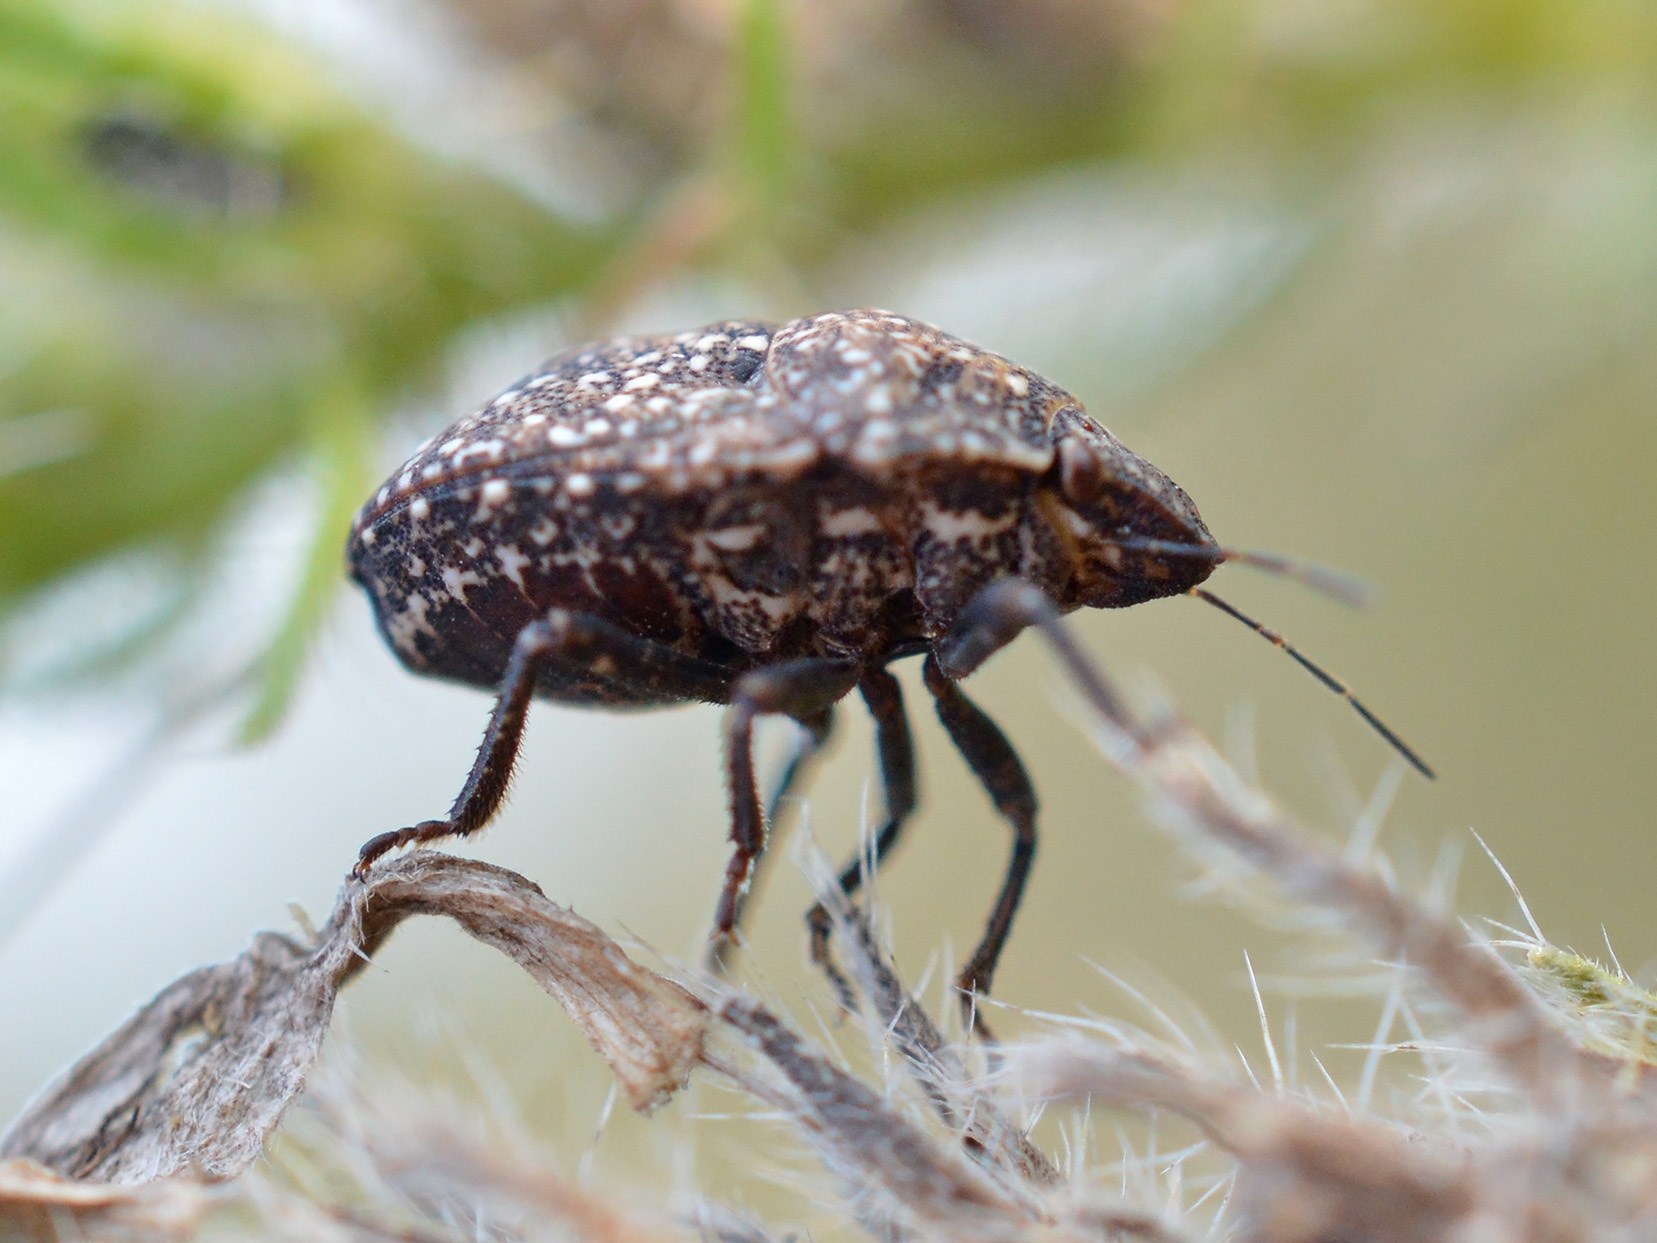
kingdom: Animalia
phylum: Arthropoda
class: Insecta
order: Hemiptera
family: Scutelleridae
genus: Psacasta
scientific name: Psacasta exanthematica
